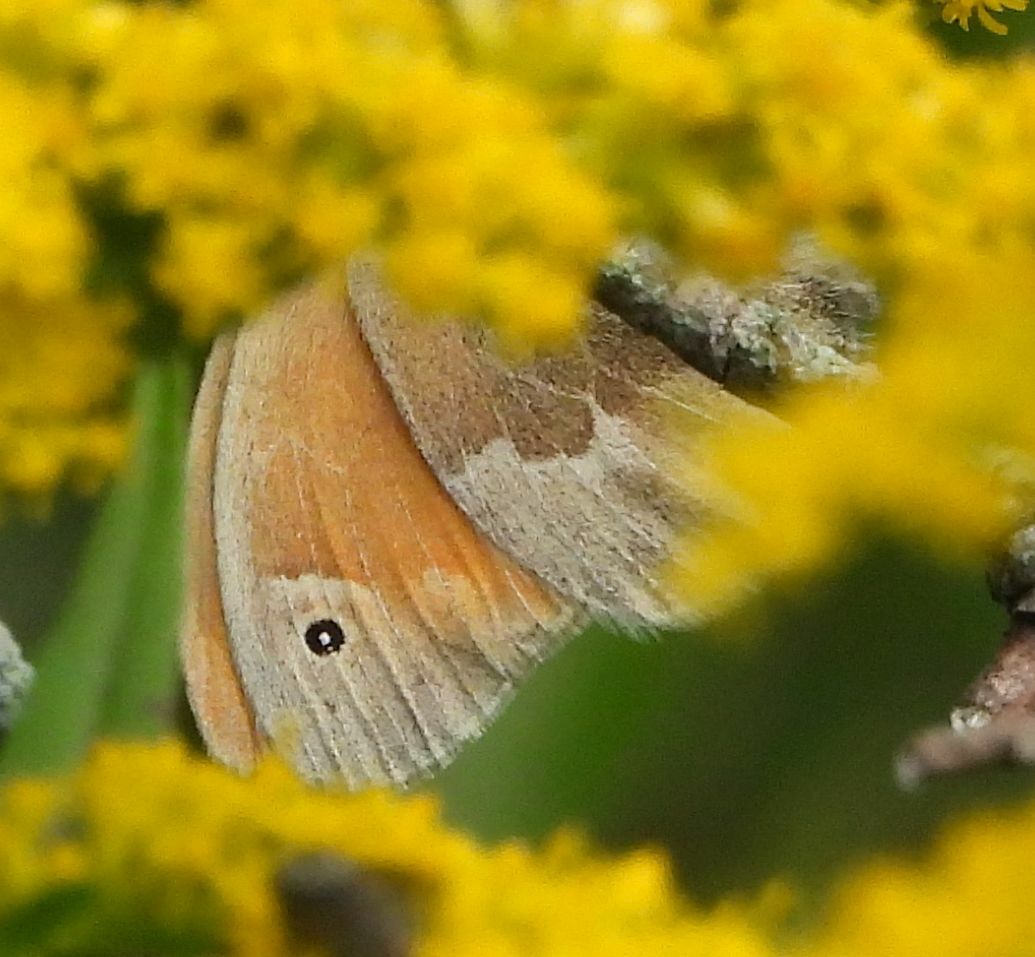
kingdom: Animalia
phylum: Arthropoda
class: Insecta
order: Lepidoptera
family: Nymphalidae
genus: Coenonympha
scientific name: Coenonympha california
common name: Common ringlet
